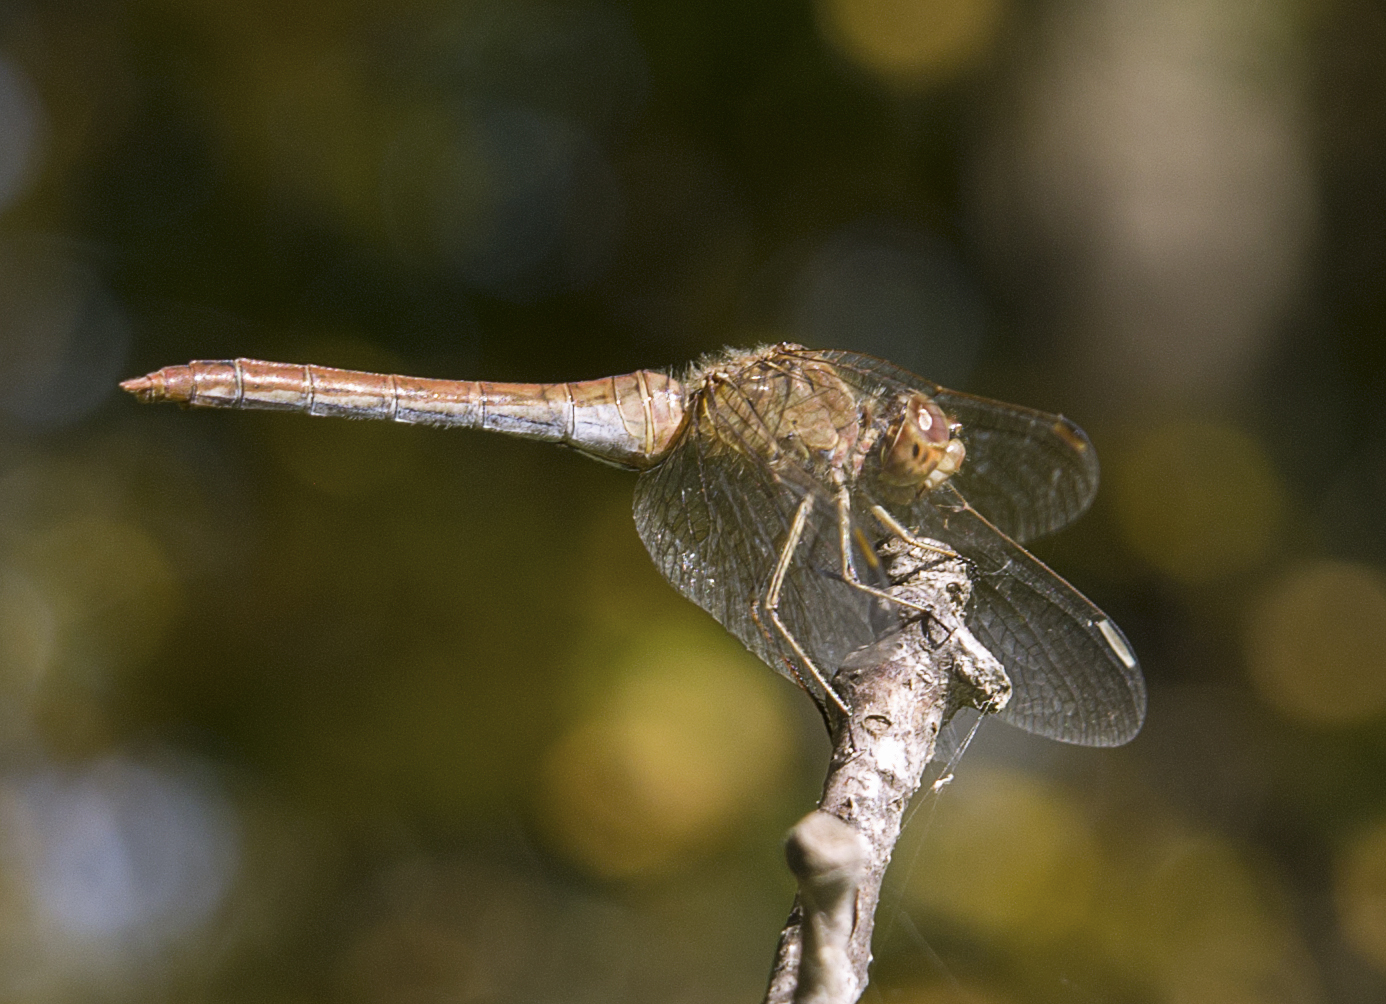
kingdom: Animalia
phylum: Arthropoda
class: Insecta
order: Odonata
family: Libellulidae
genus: Sympetrum
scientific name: Sympetrum meridionale
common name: Southern darter
